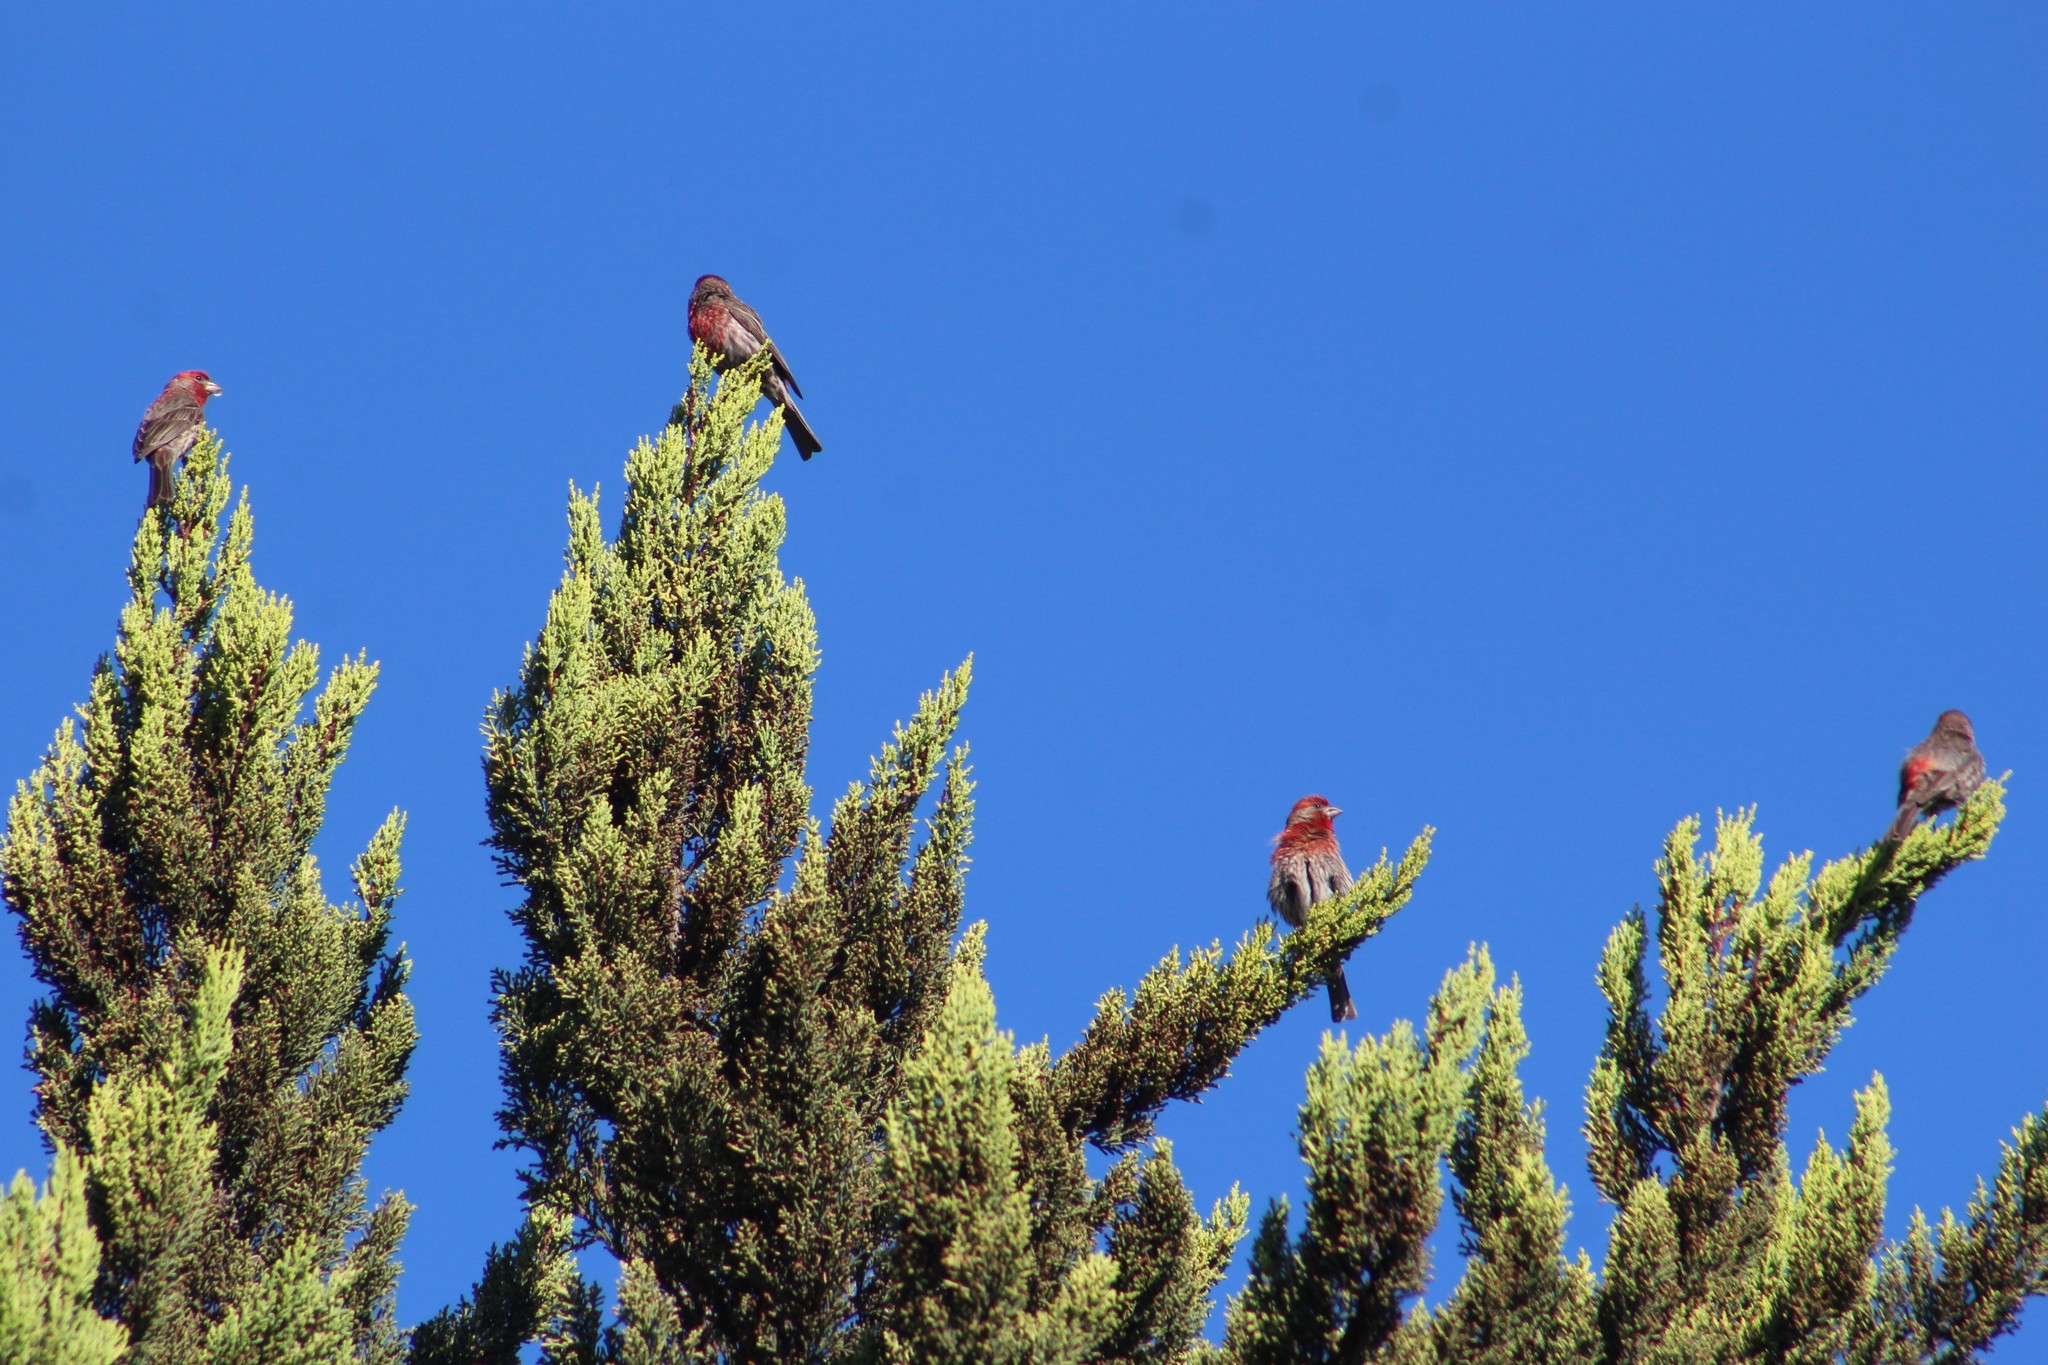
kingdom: Animalia
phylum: Chordata
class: Aves
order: Passeriformes
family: Fringillidae
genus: Haemorhous
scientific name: Haemorhous mexicanus
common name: House finch
